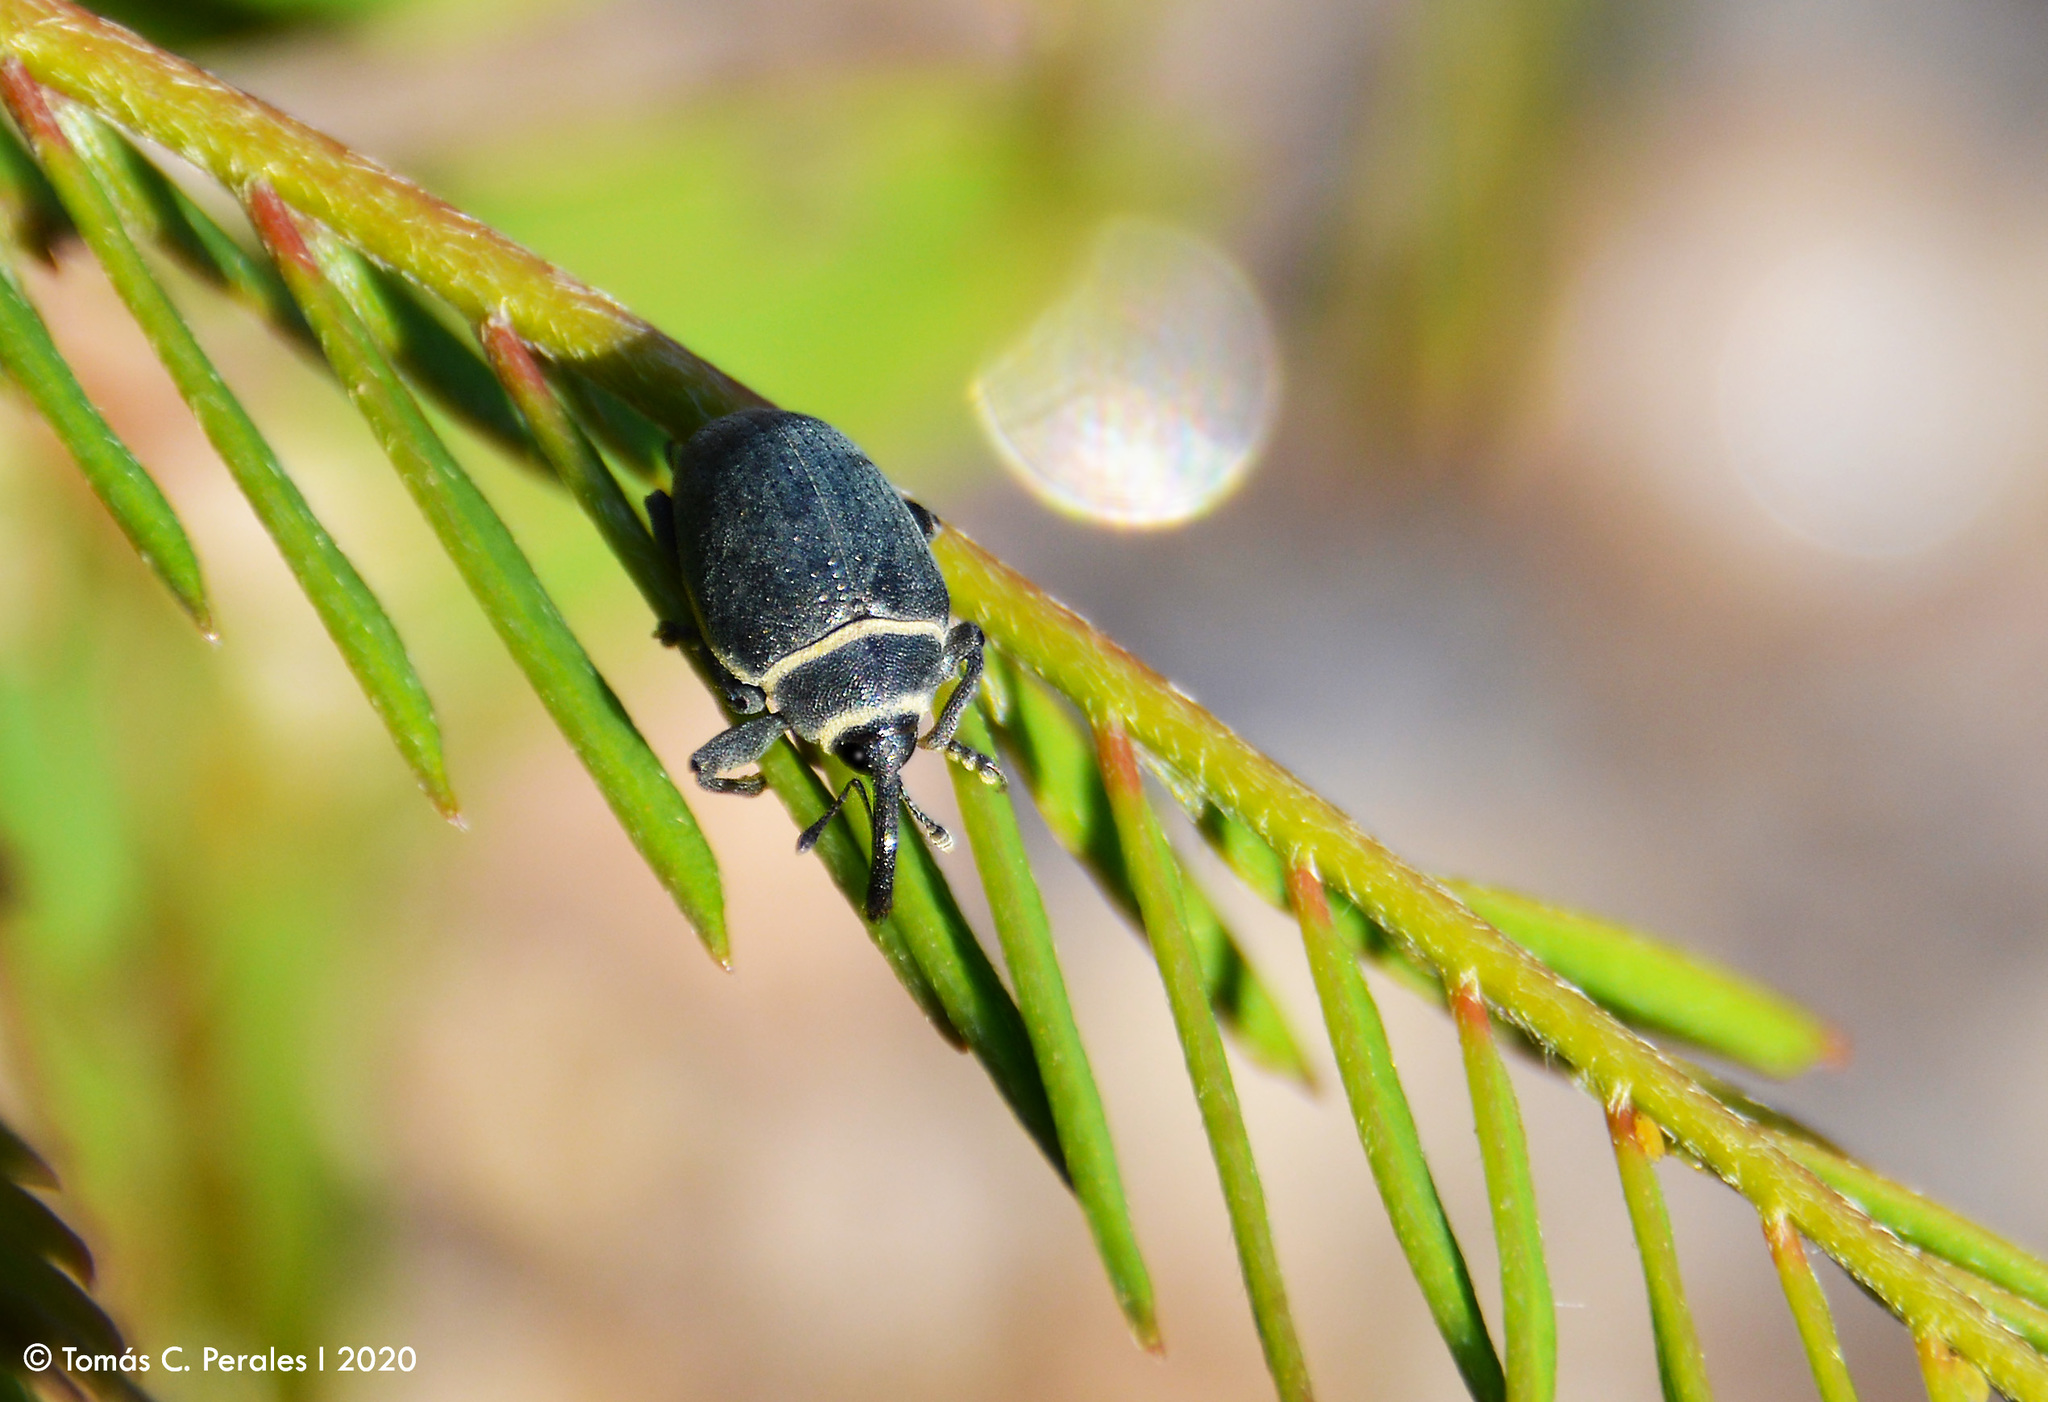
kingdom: Animalia
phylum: Arthropoda
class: Insecta
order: Coleoptera
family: Curculionidae
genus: Rhyssomatus
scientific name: Rhyssomatus marginatus
